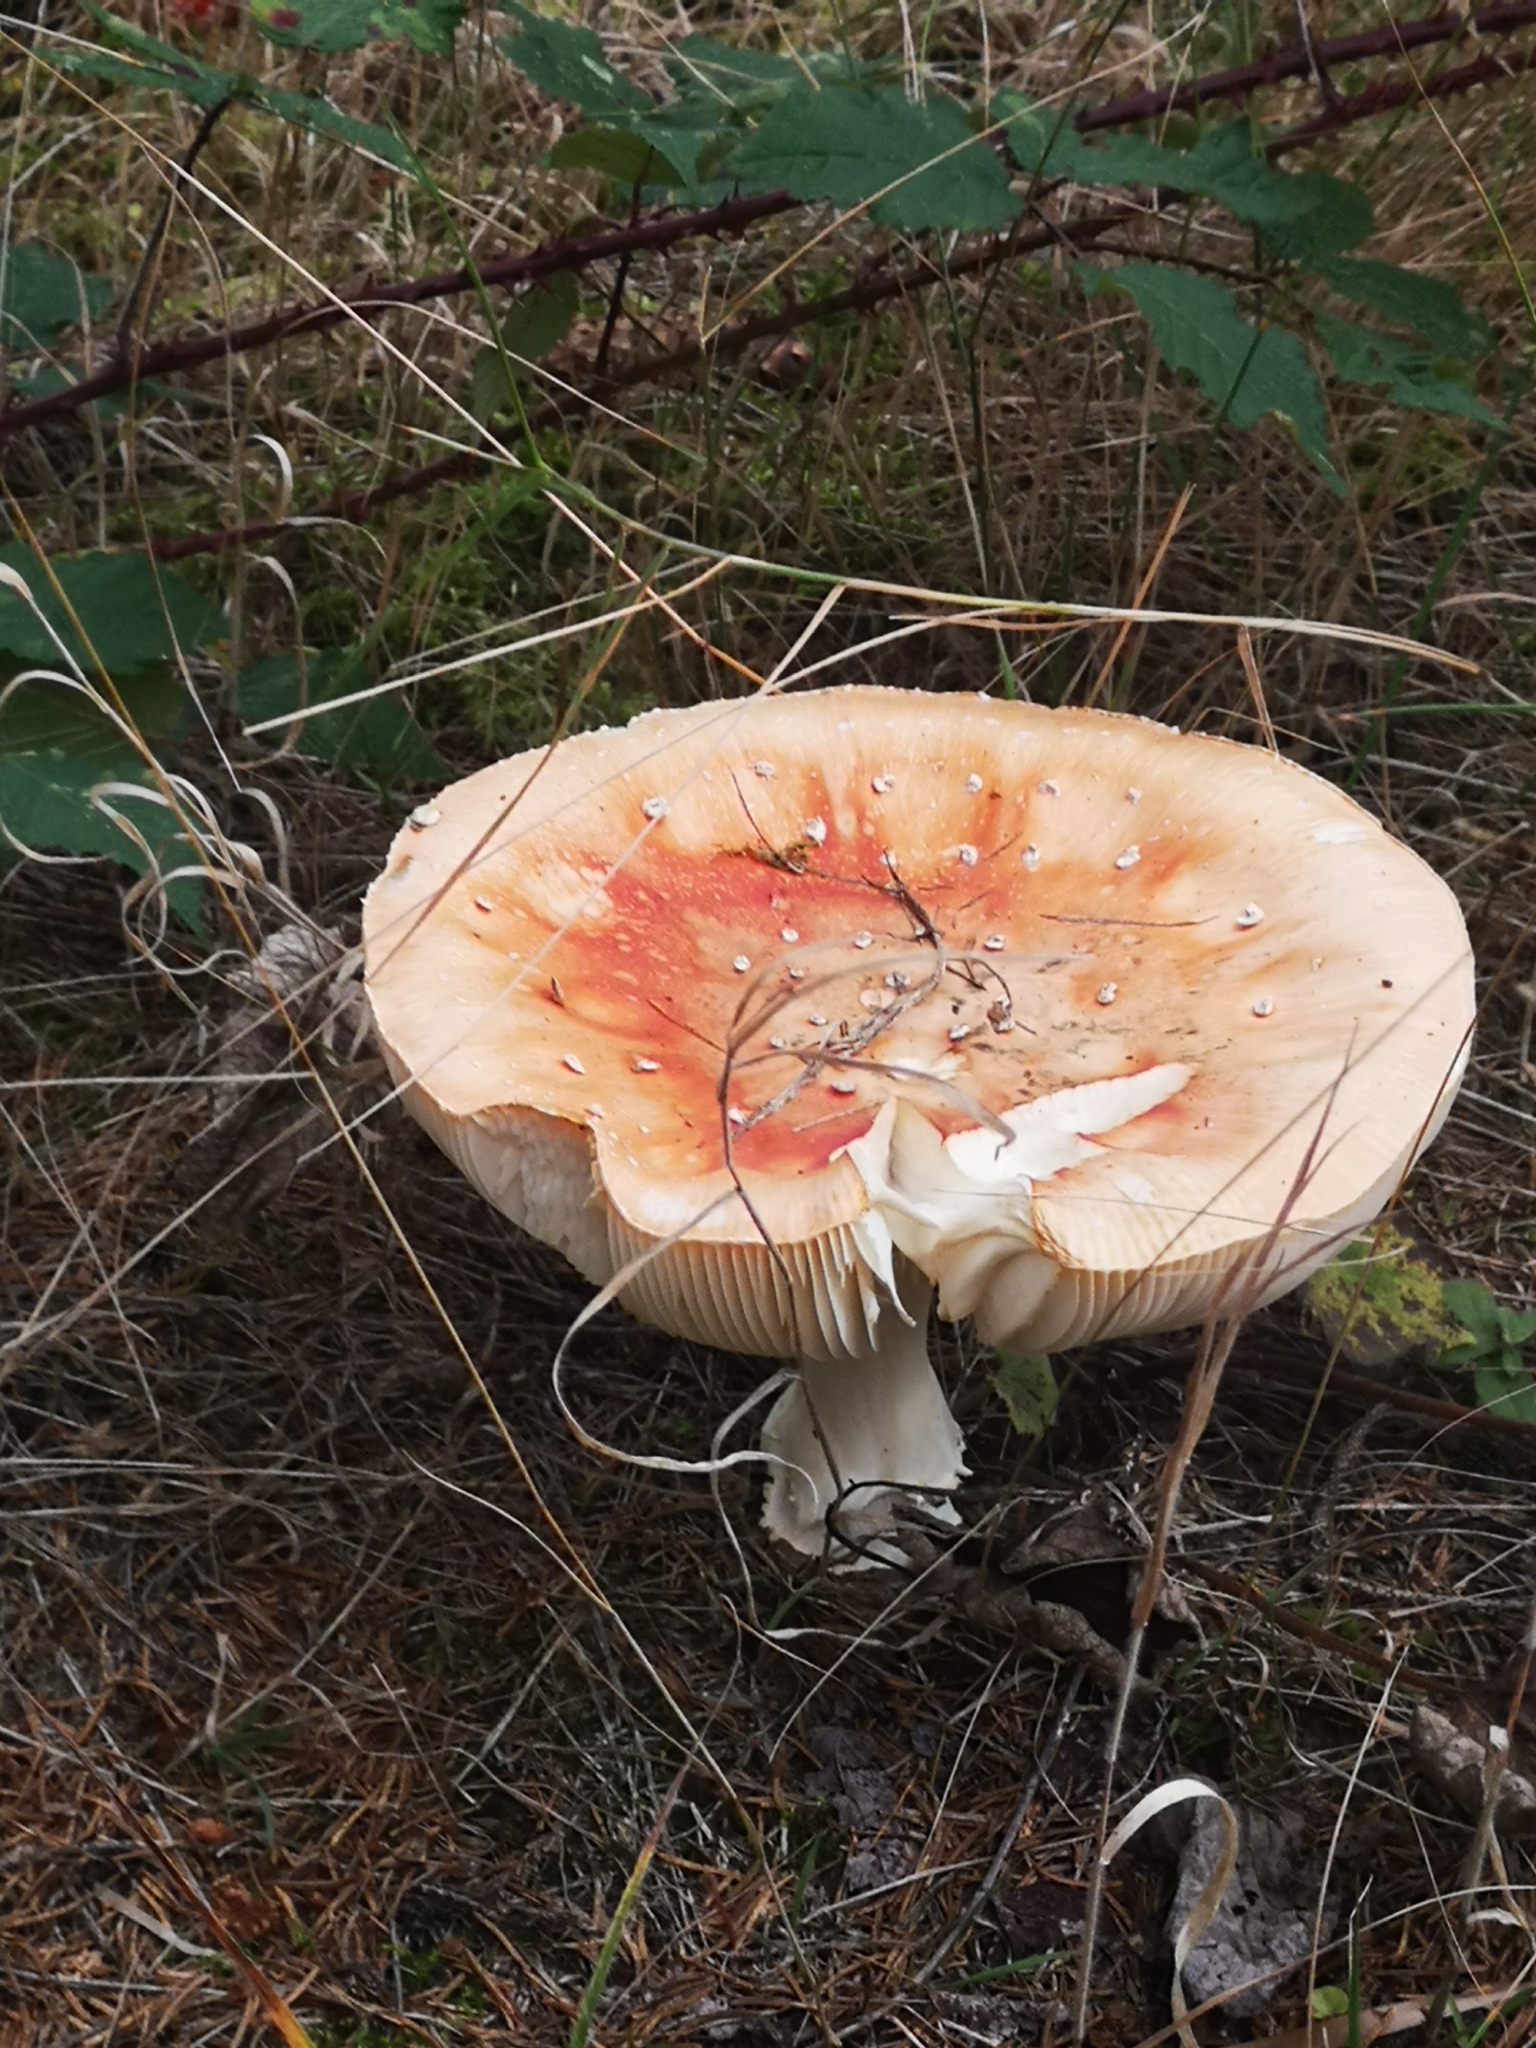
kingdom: Fungi
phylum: Basidiomycota
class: Agaricomycetes
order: Agaricales
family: Amanitaceae
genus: Amanita
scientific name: Amanita muscaria
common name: Fly agaric
